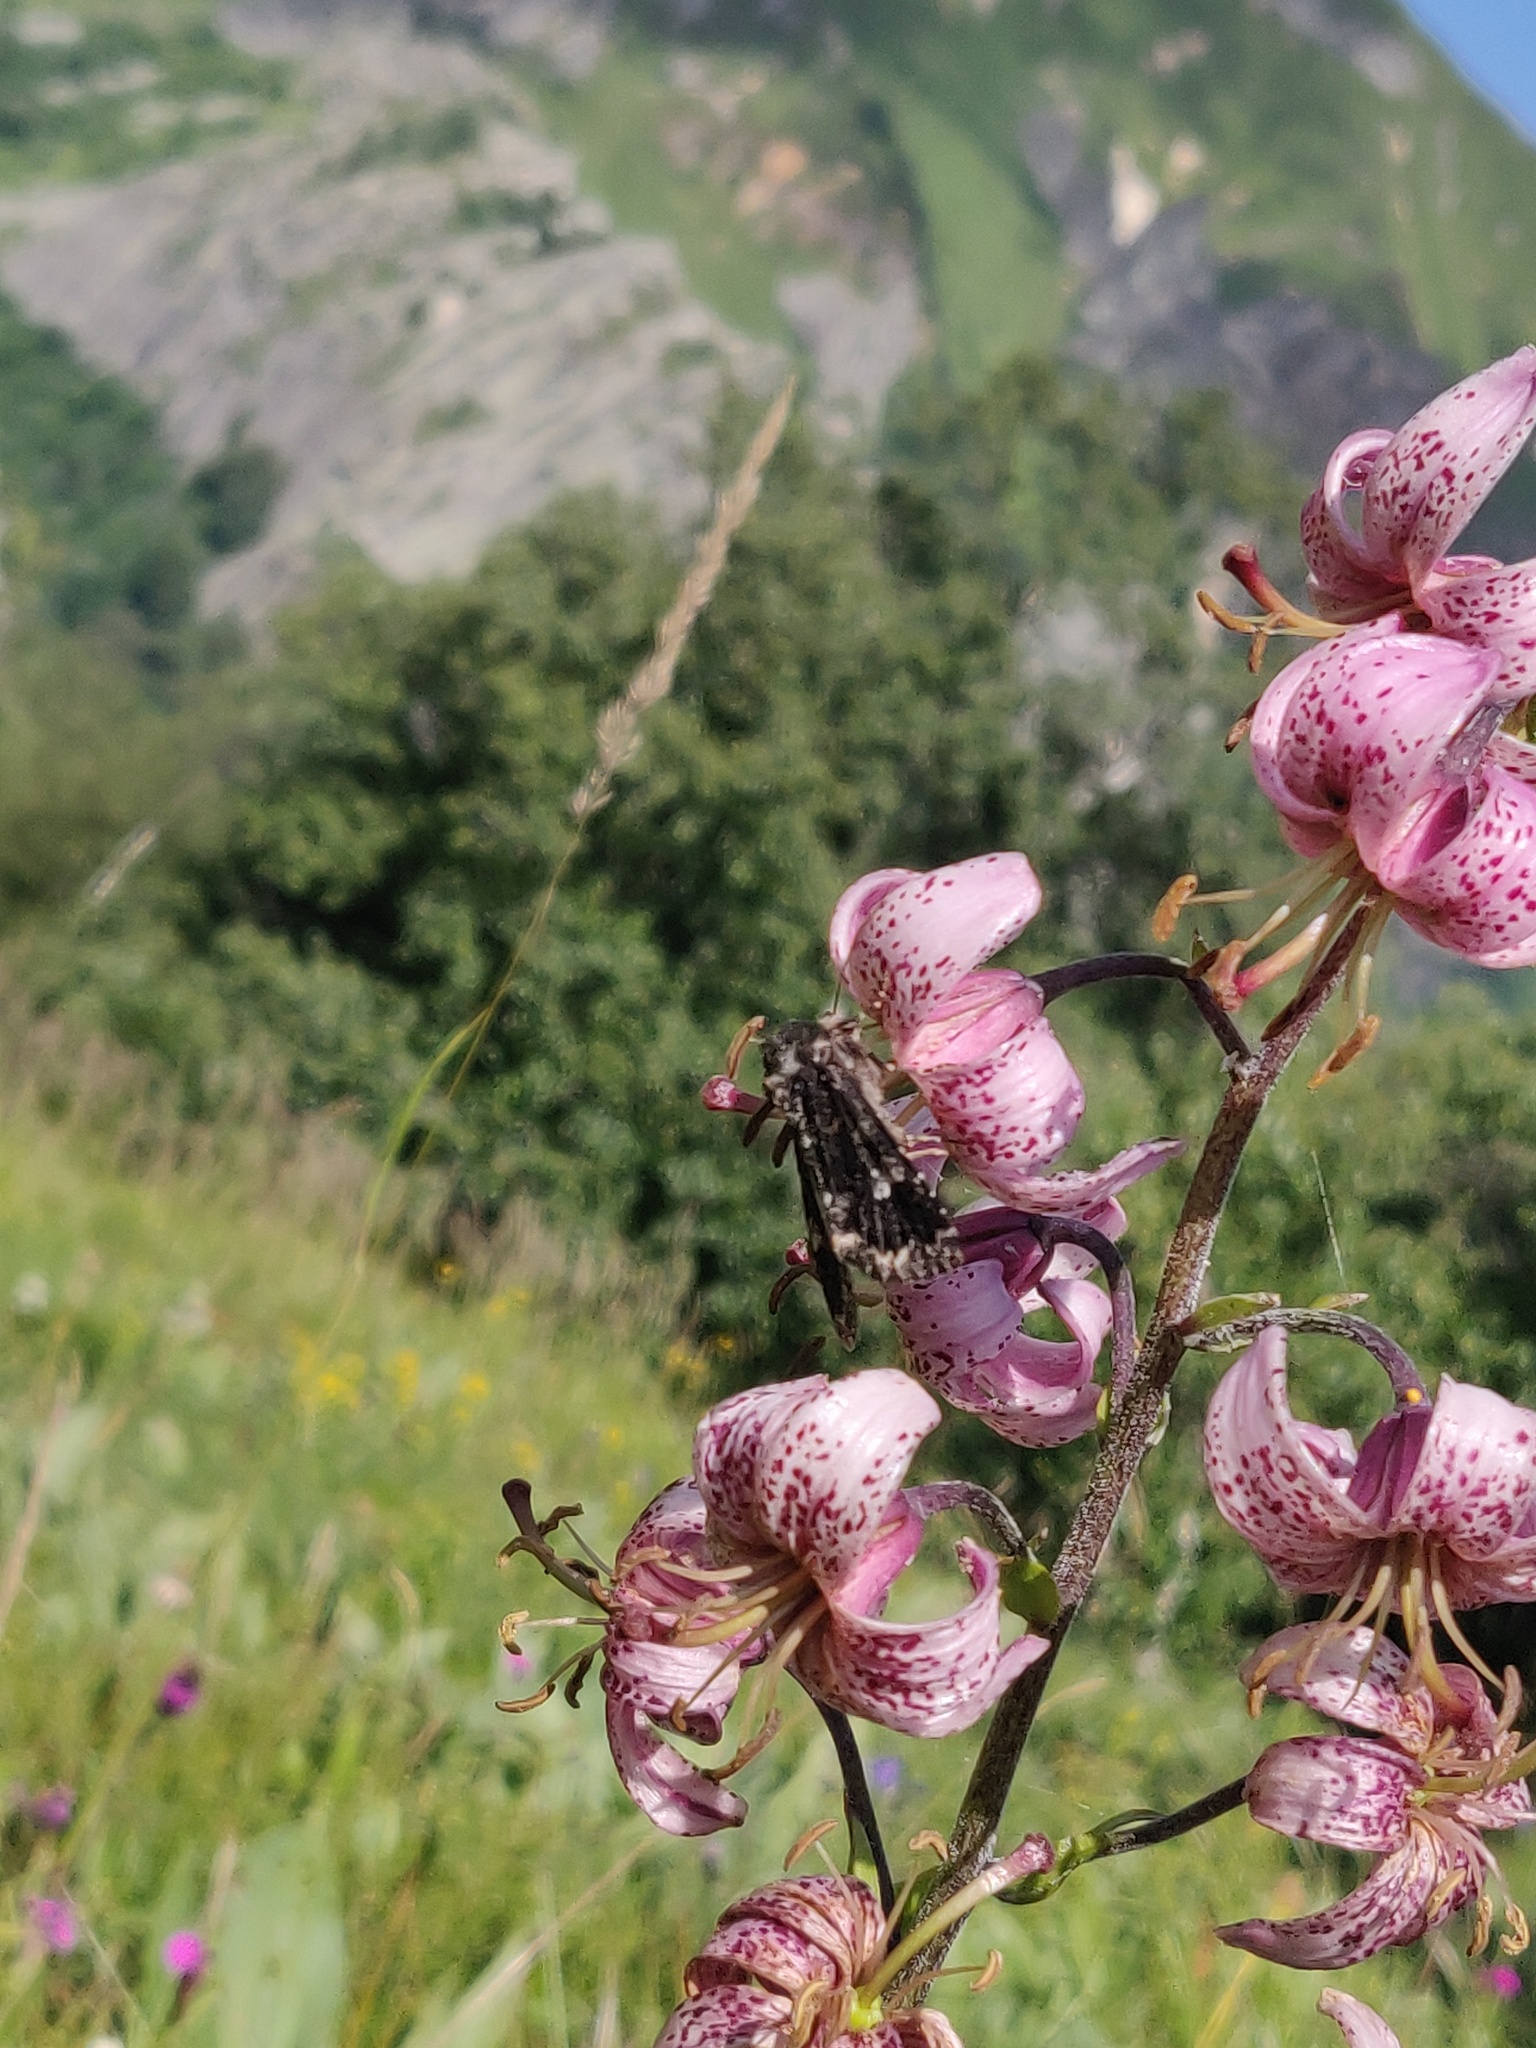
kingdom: Plantae
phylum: Tracheophyta
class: Liliopsida
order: Liliales
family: Liliaceae
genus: Lilium
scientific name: Lilium martagon
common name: Martagon lily
